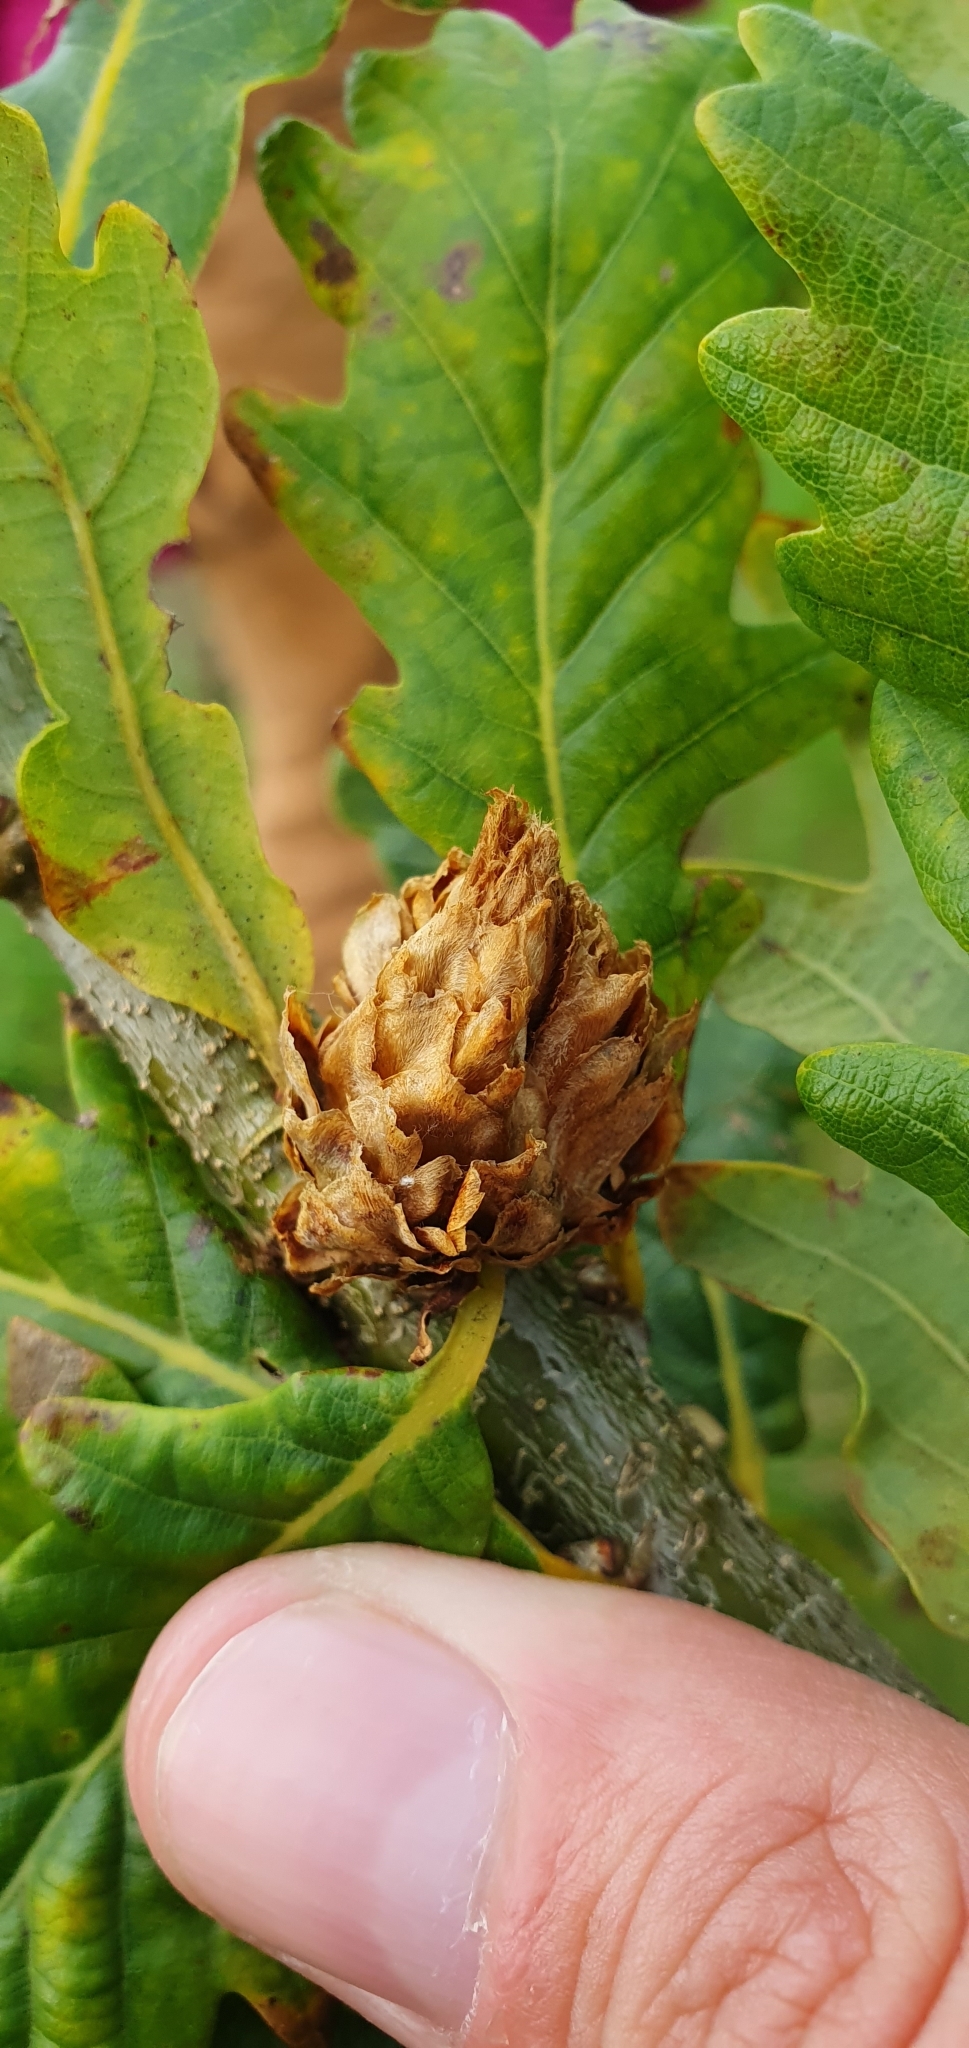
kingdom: Animalia
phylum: Arthropoda
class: Insecta
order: Hymenoptera
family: Cynipidae
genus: Andricus
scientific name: Andricus foecundatrix
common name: Artichoke gall
